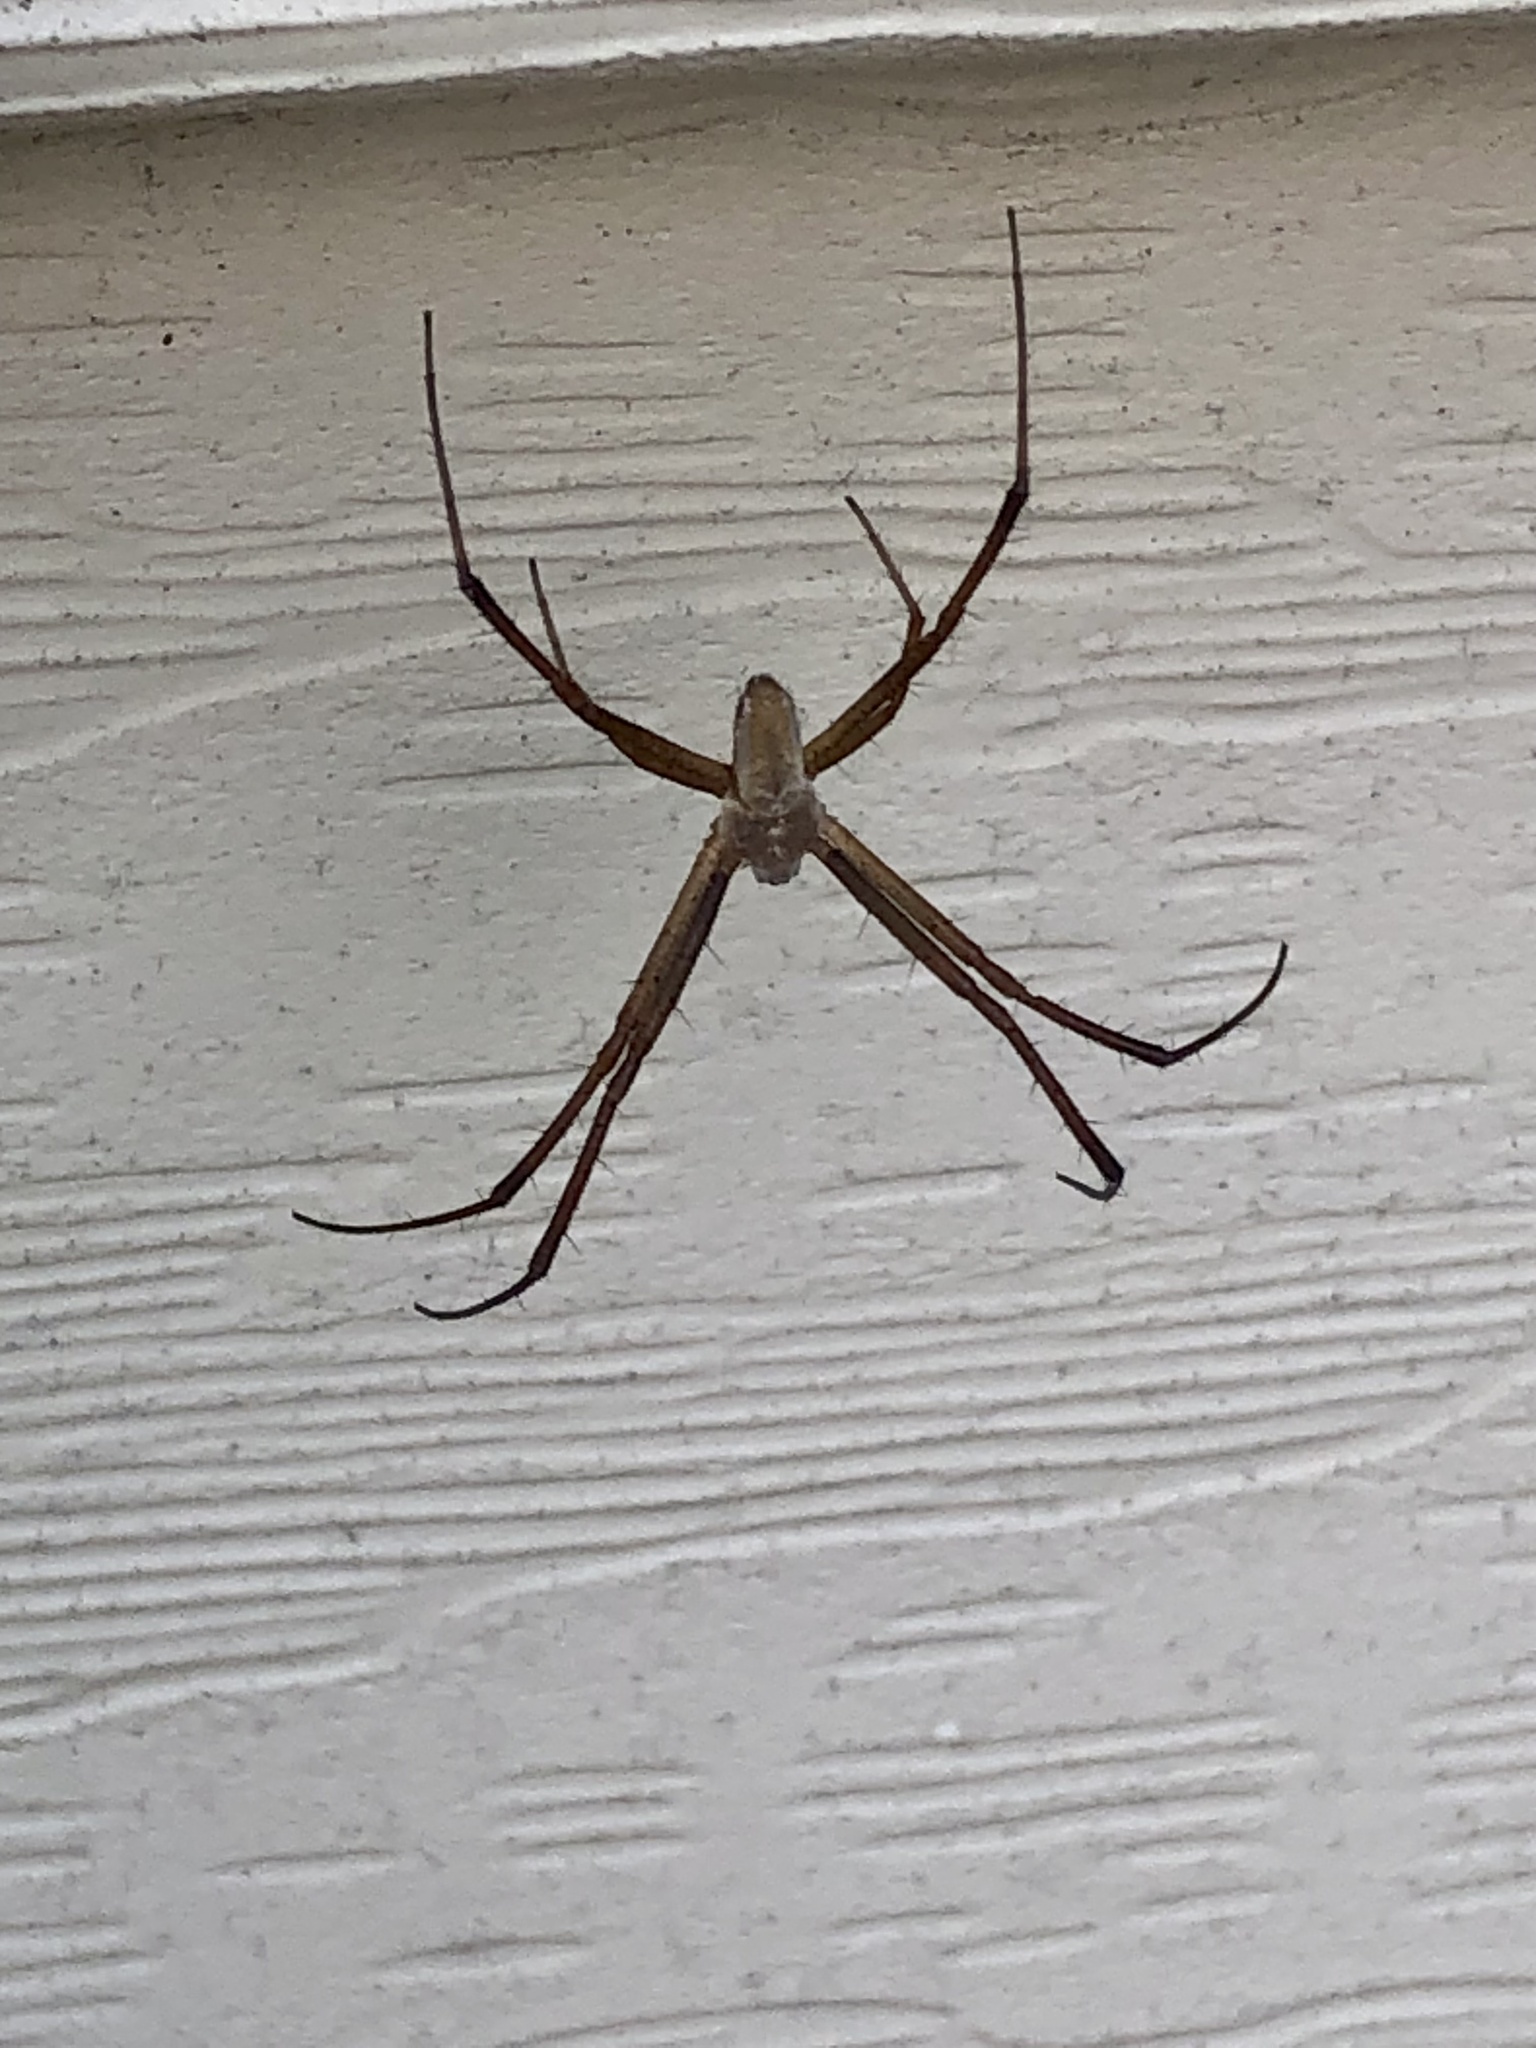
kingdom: Animalia
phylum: Arthropoda
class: Arachnida
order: Araneae
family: Araneidae
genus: Argiope
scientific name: Argiope trifasciata
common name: Banded garden spider
